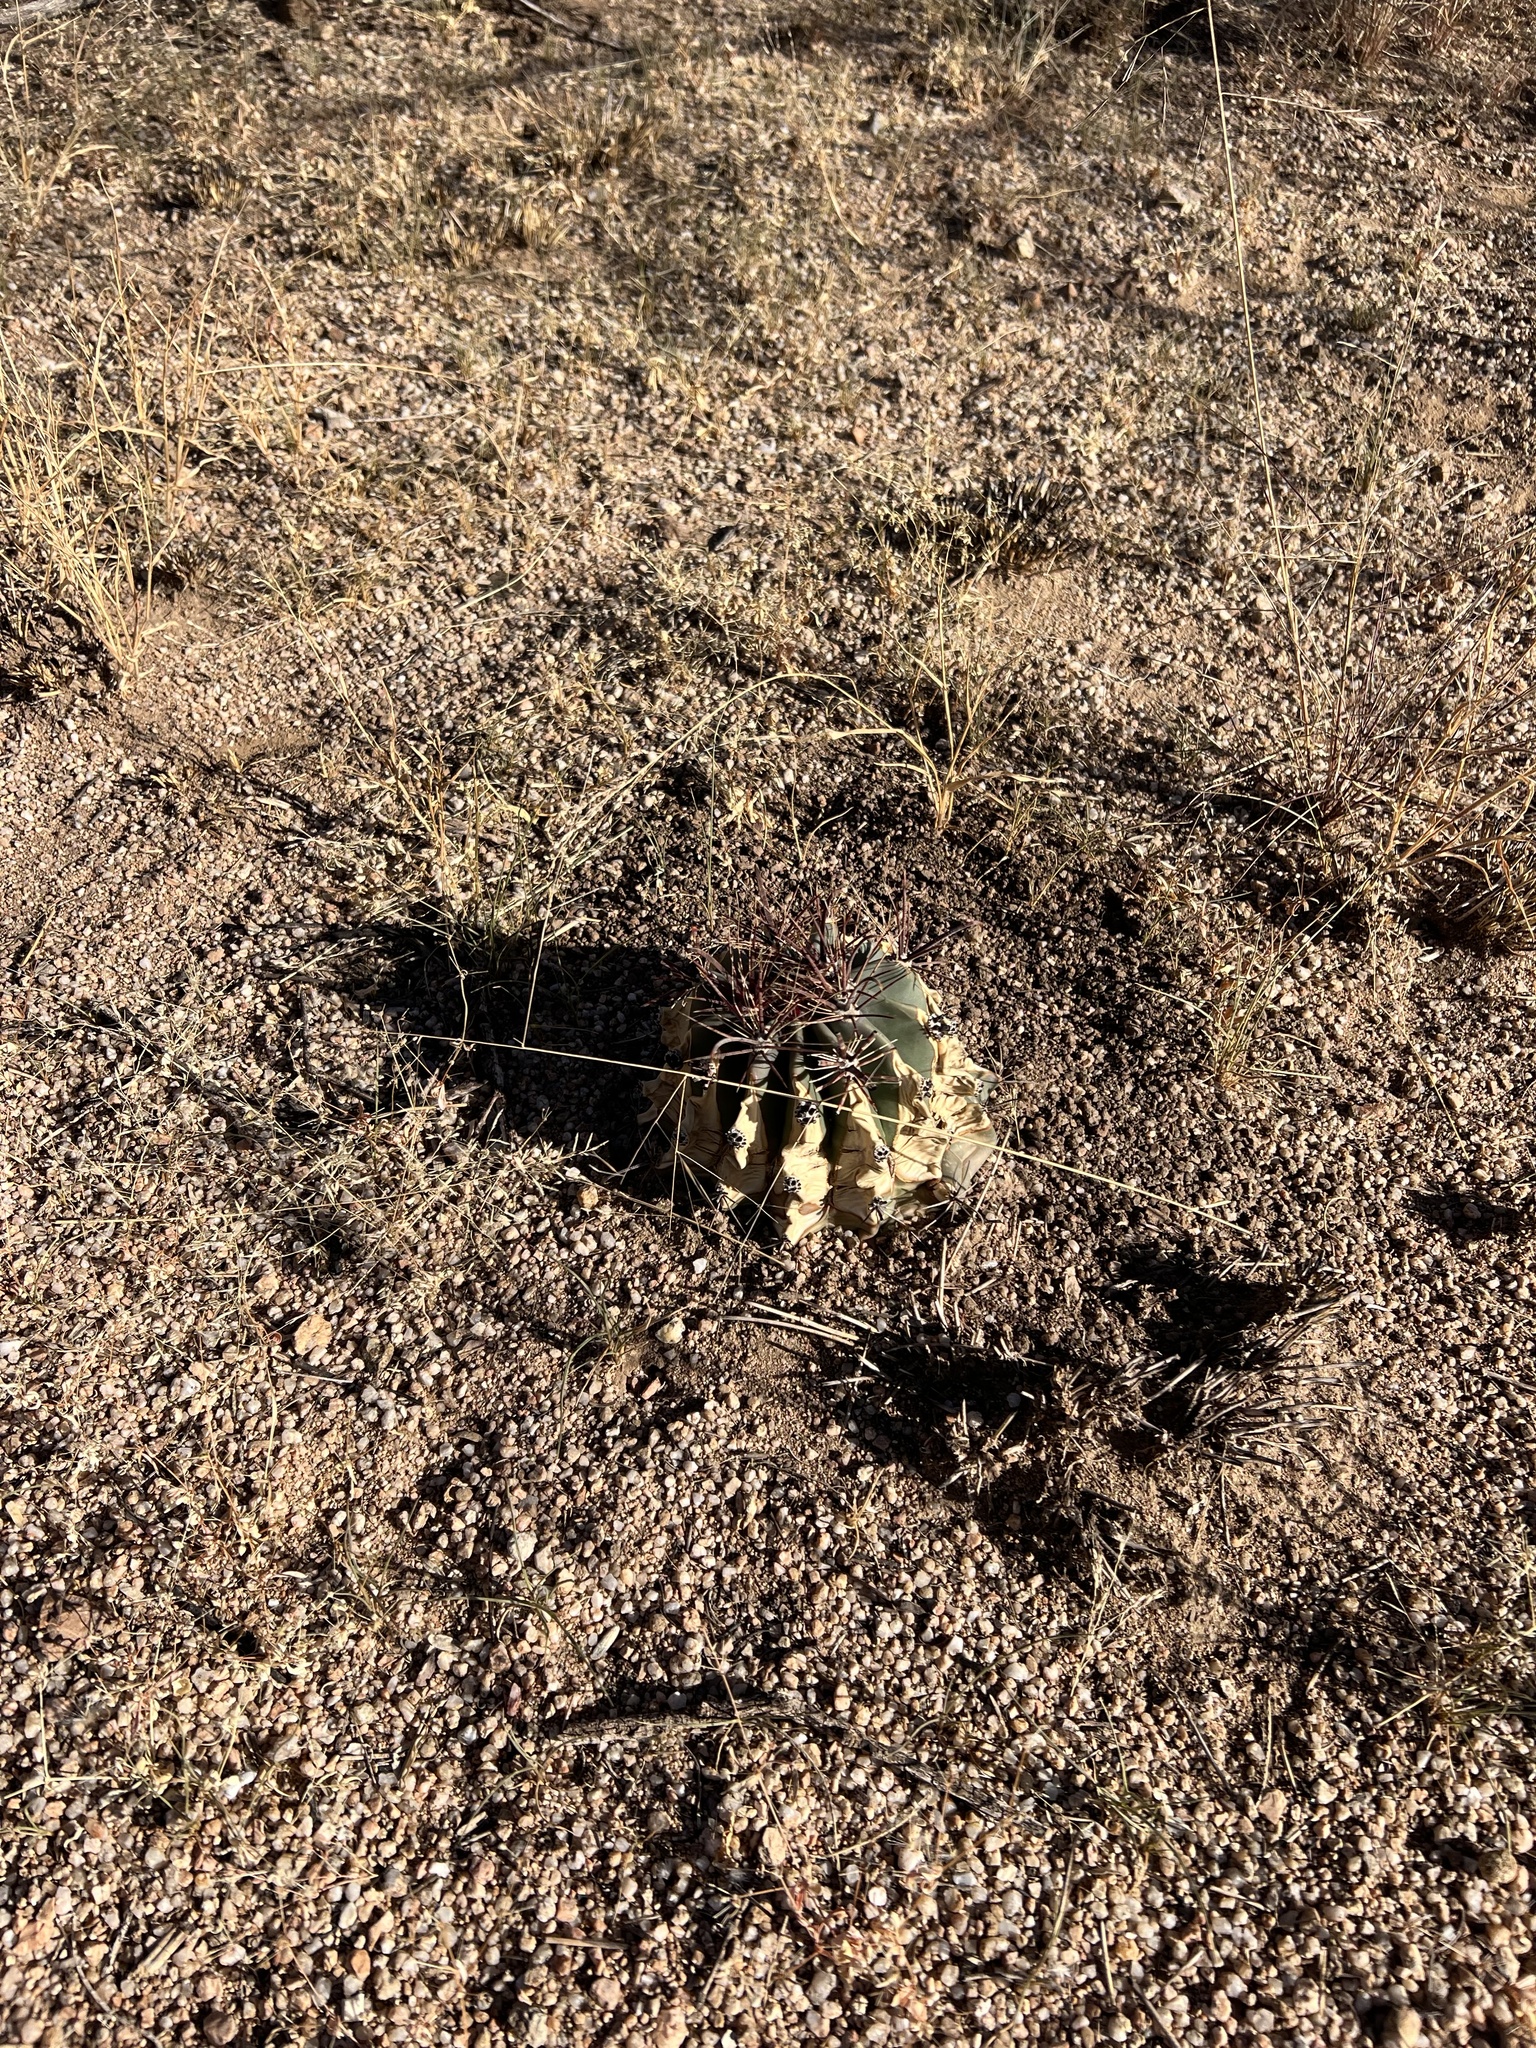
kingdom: Plantae
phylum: Tracheophyta
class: Magnoliopsida
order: Caryophyllales
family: Cactaceae
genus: Ferocactus
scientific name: Ferocactus wislizeni
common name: Candy barrel cactus
